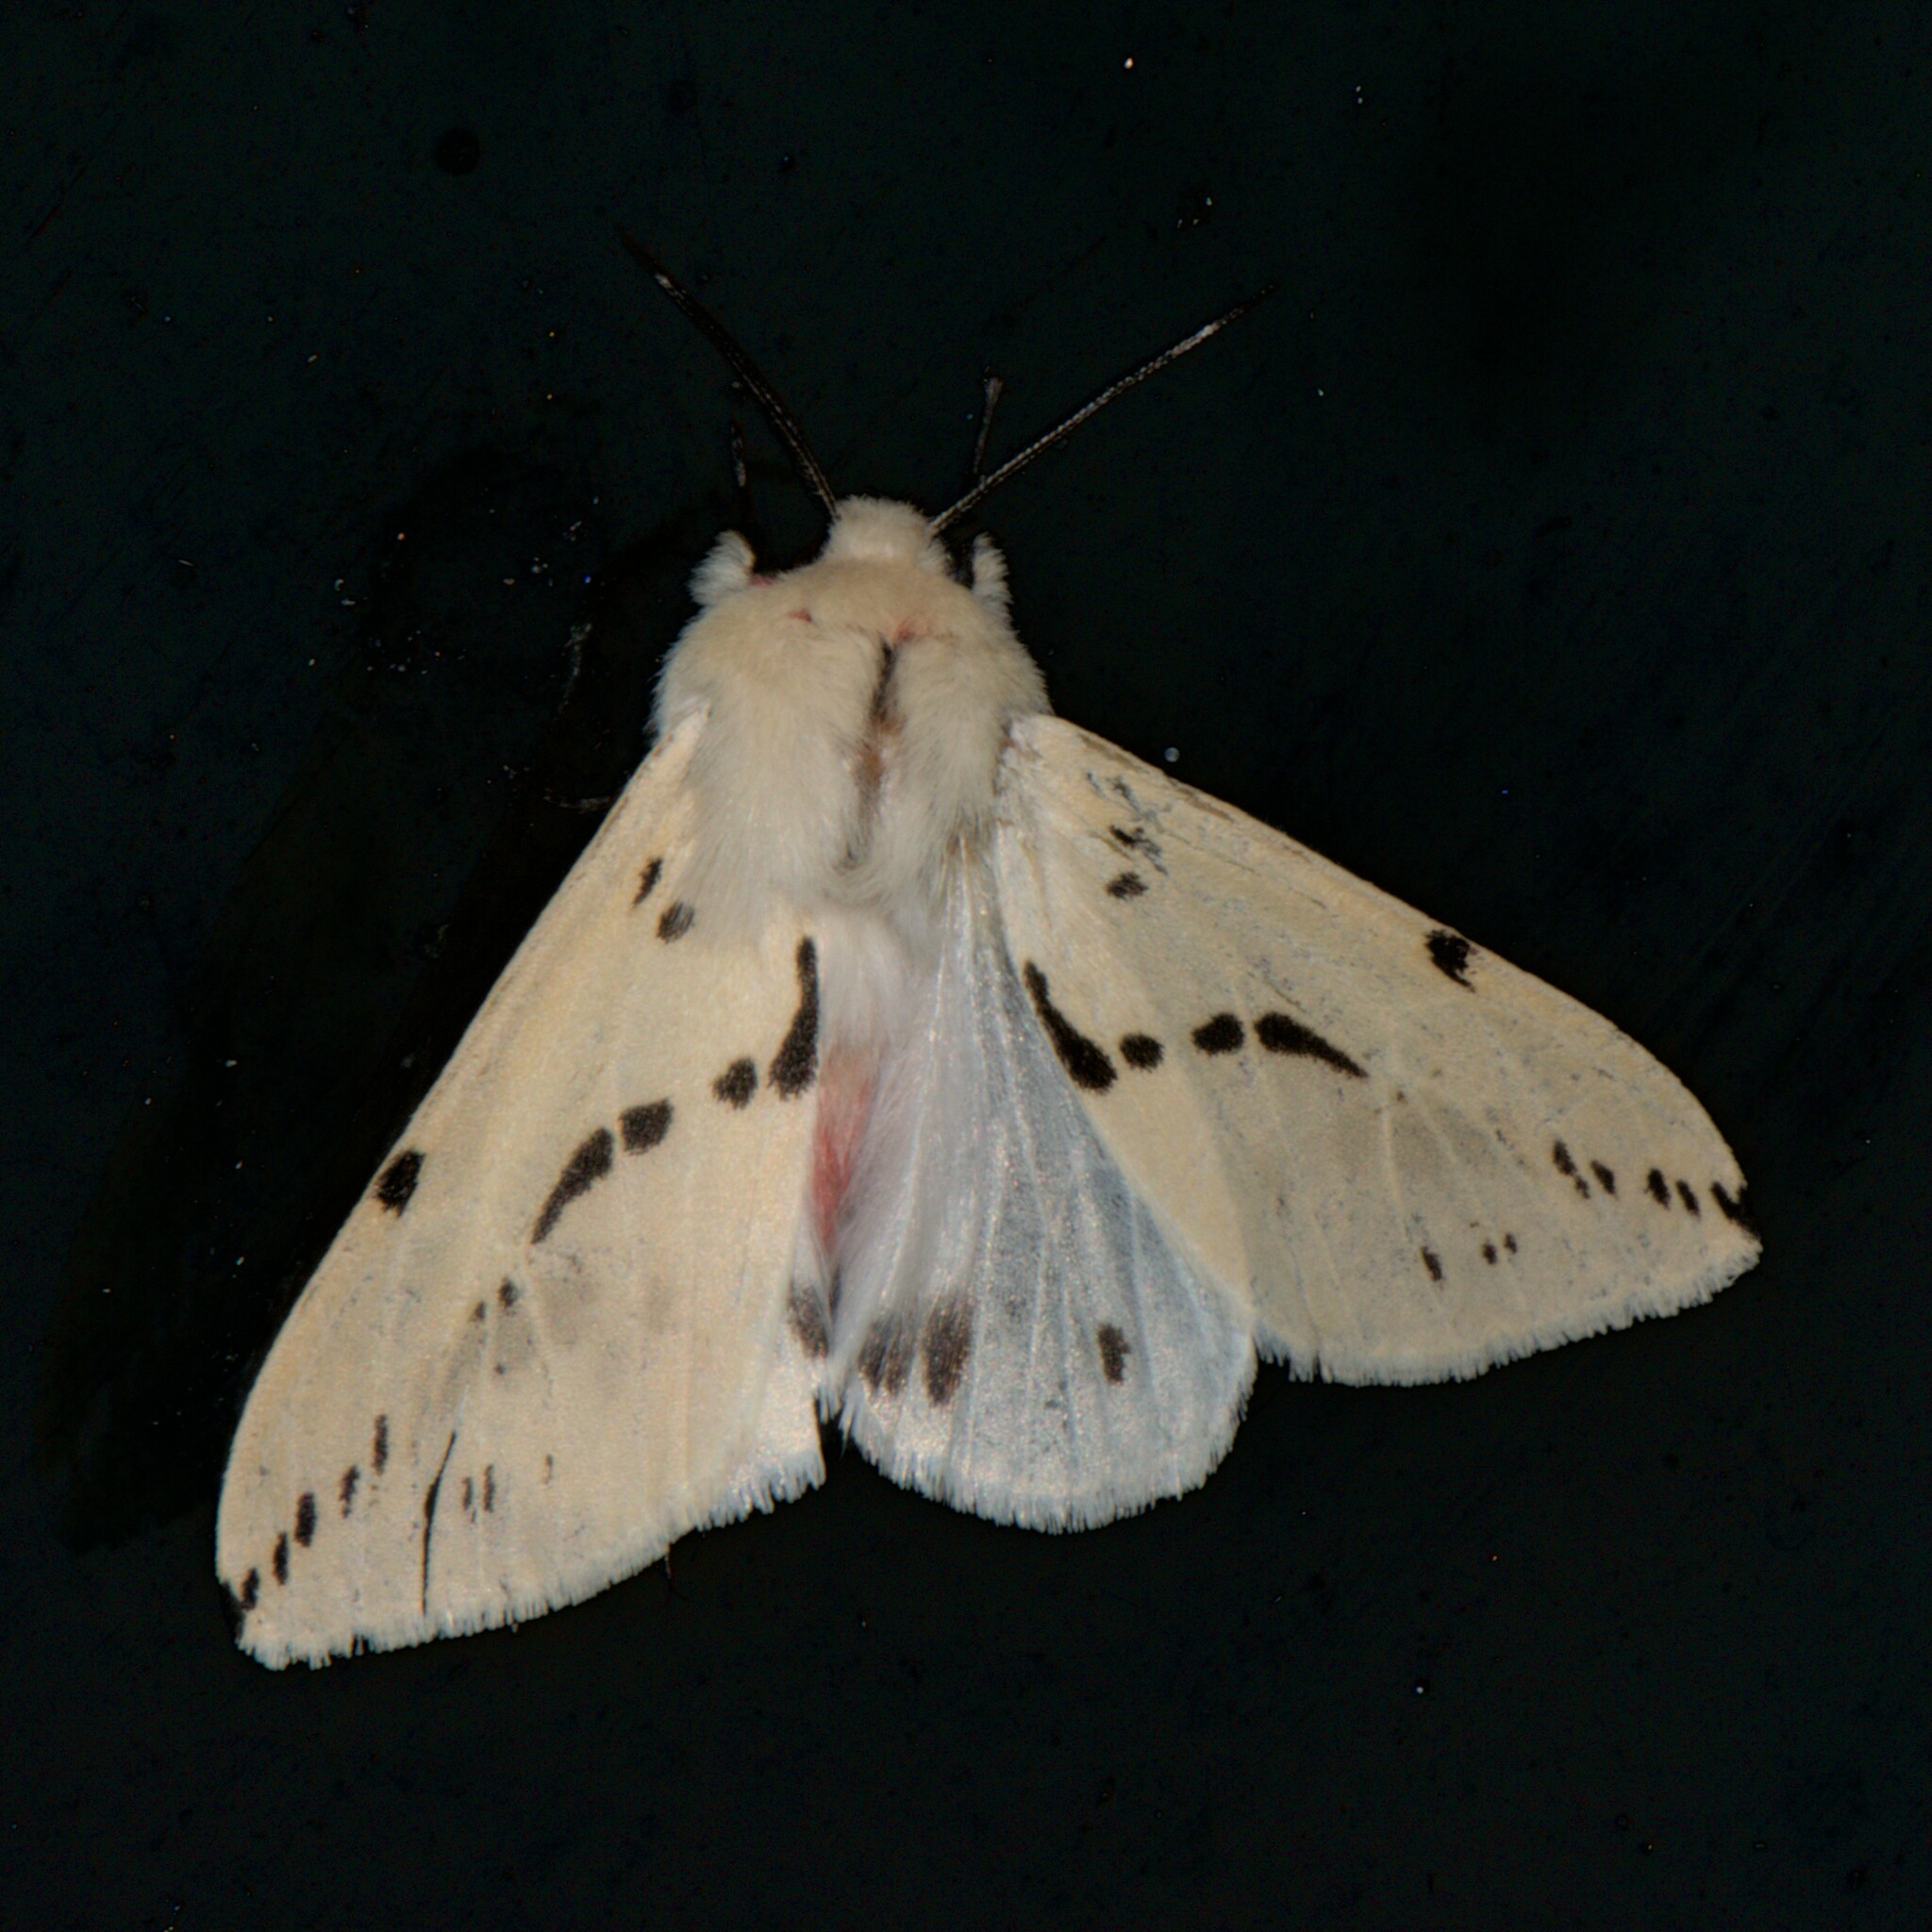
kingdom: Animalia
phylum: Arthropoda
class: Insecta
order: Lepidoptera
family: Erebidae
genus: Lemyra
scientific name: Lemyra stigmata
